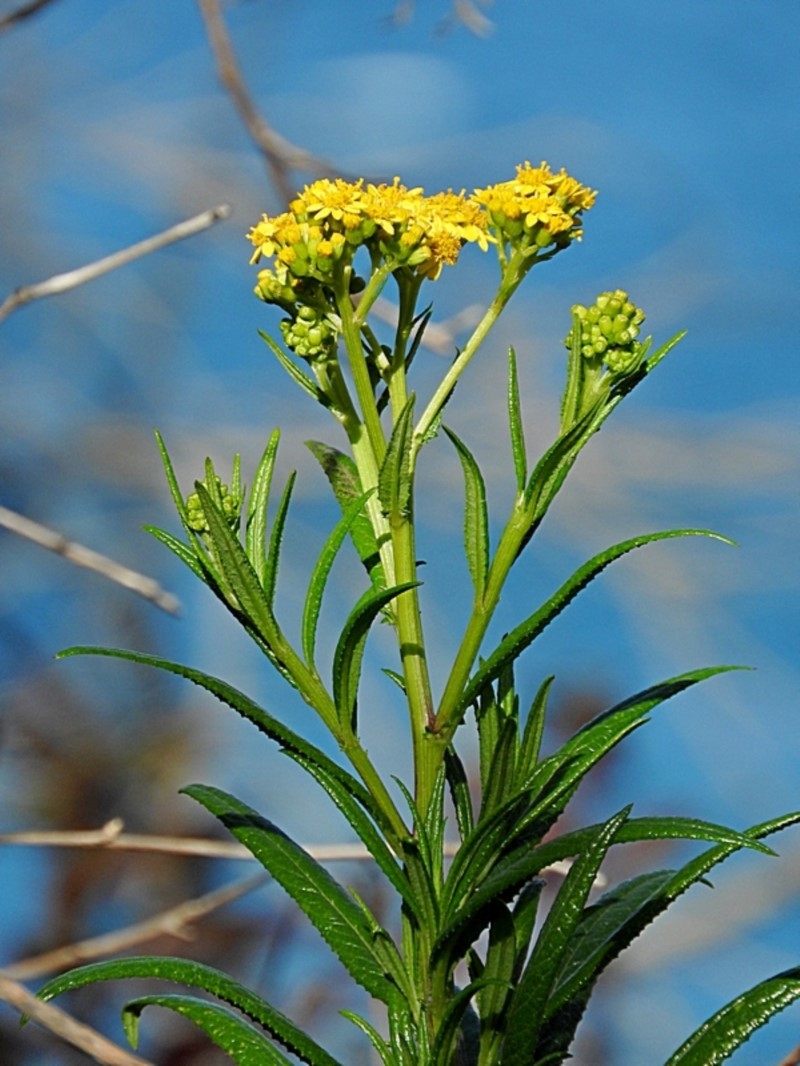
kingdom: Plantae
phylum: Tracheophyta
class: Magnoliopsida
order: Asterales
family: Asteraceae
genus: Senecio
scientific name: Senecio linearifolius
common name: Fireweed groundsel
